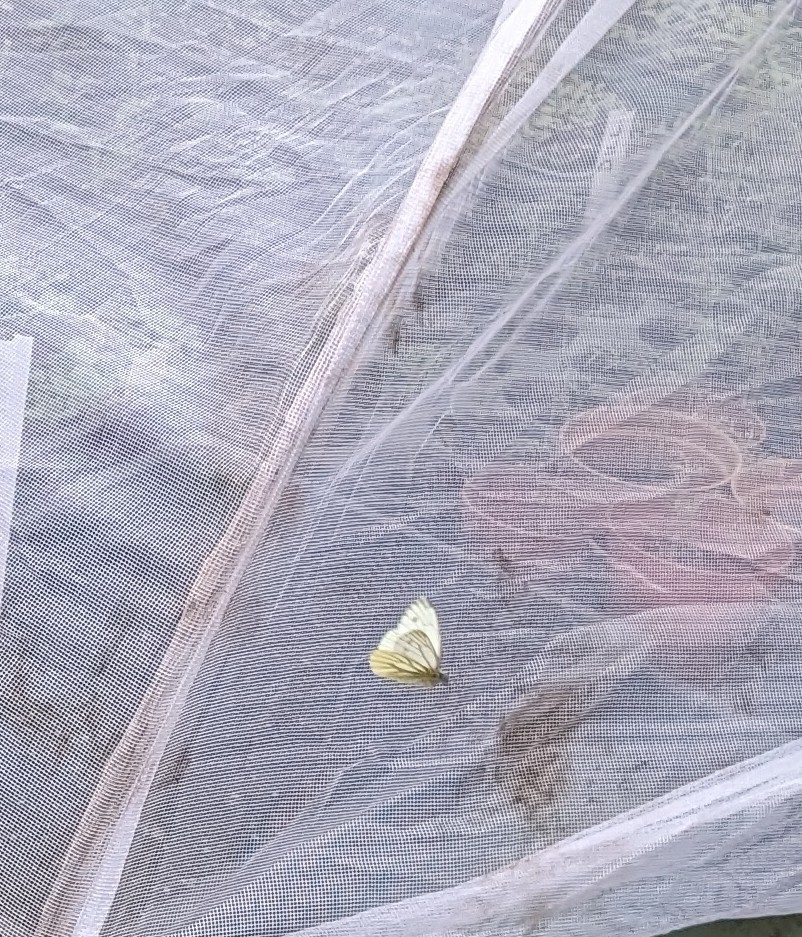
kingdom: Animalia
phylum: Arthropoda
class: Insecta
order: Lepidoptera
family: Pieridae
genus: Pieris
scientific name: Pieris napi
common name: Green-veined white
